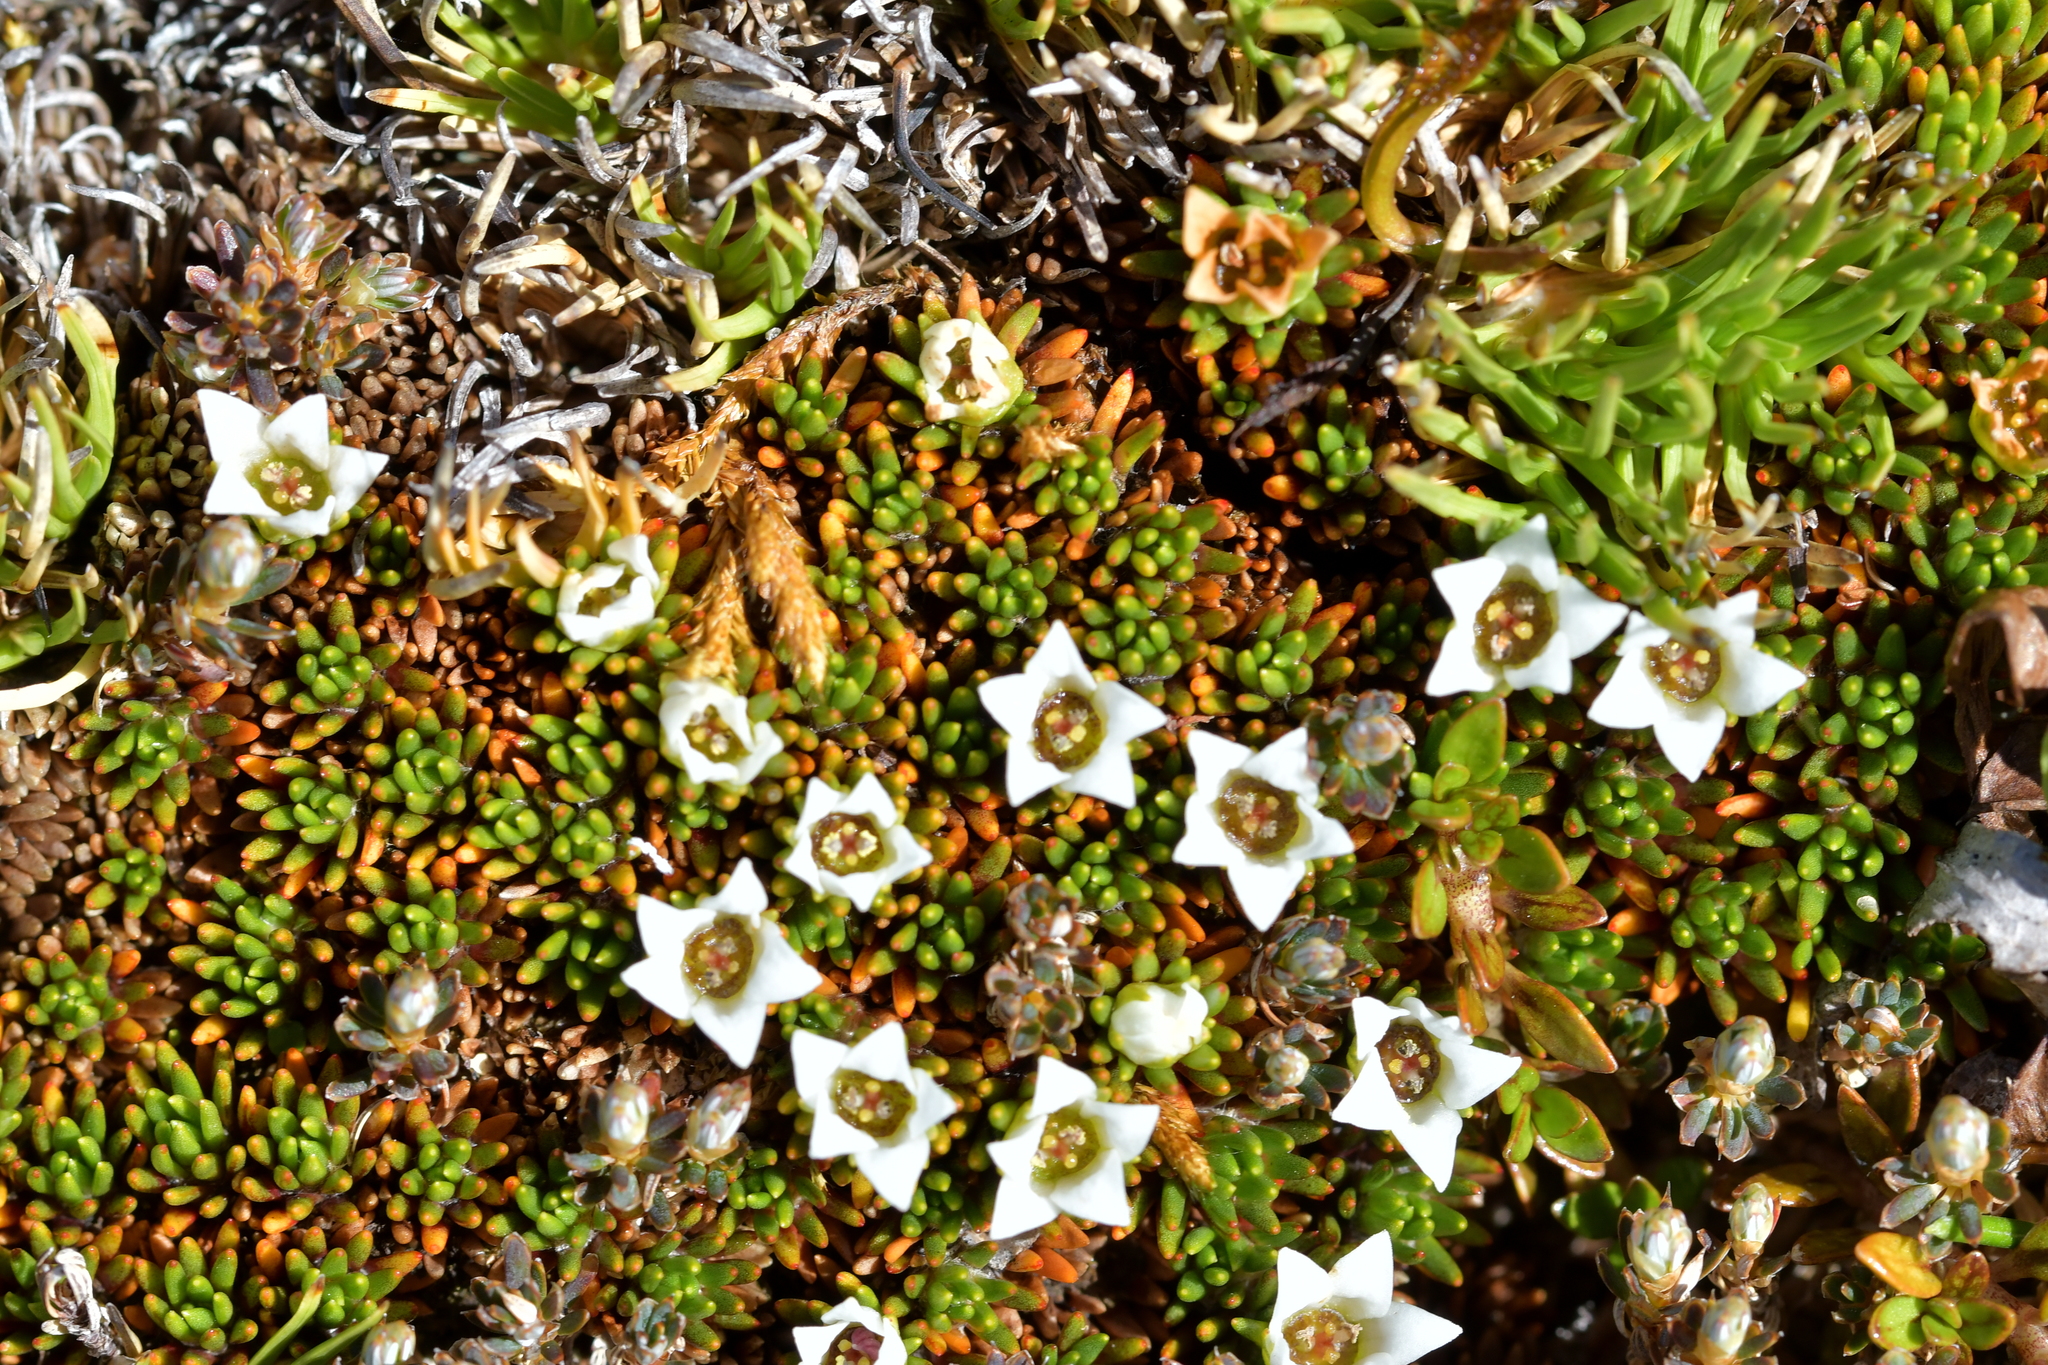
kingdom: Plantae
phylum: Tracheophyta
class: Magnoliopsida
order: Asterales
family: Stylidiaceae
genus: Donatia
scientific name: Donatia novae-zelandiae
